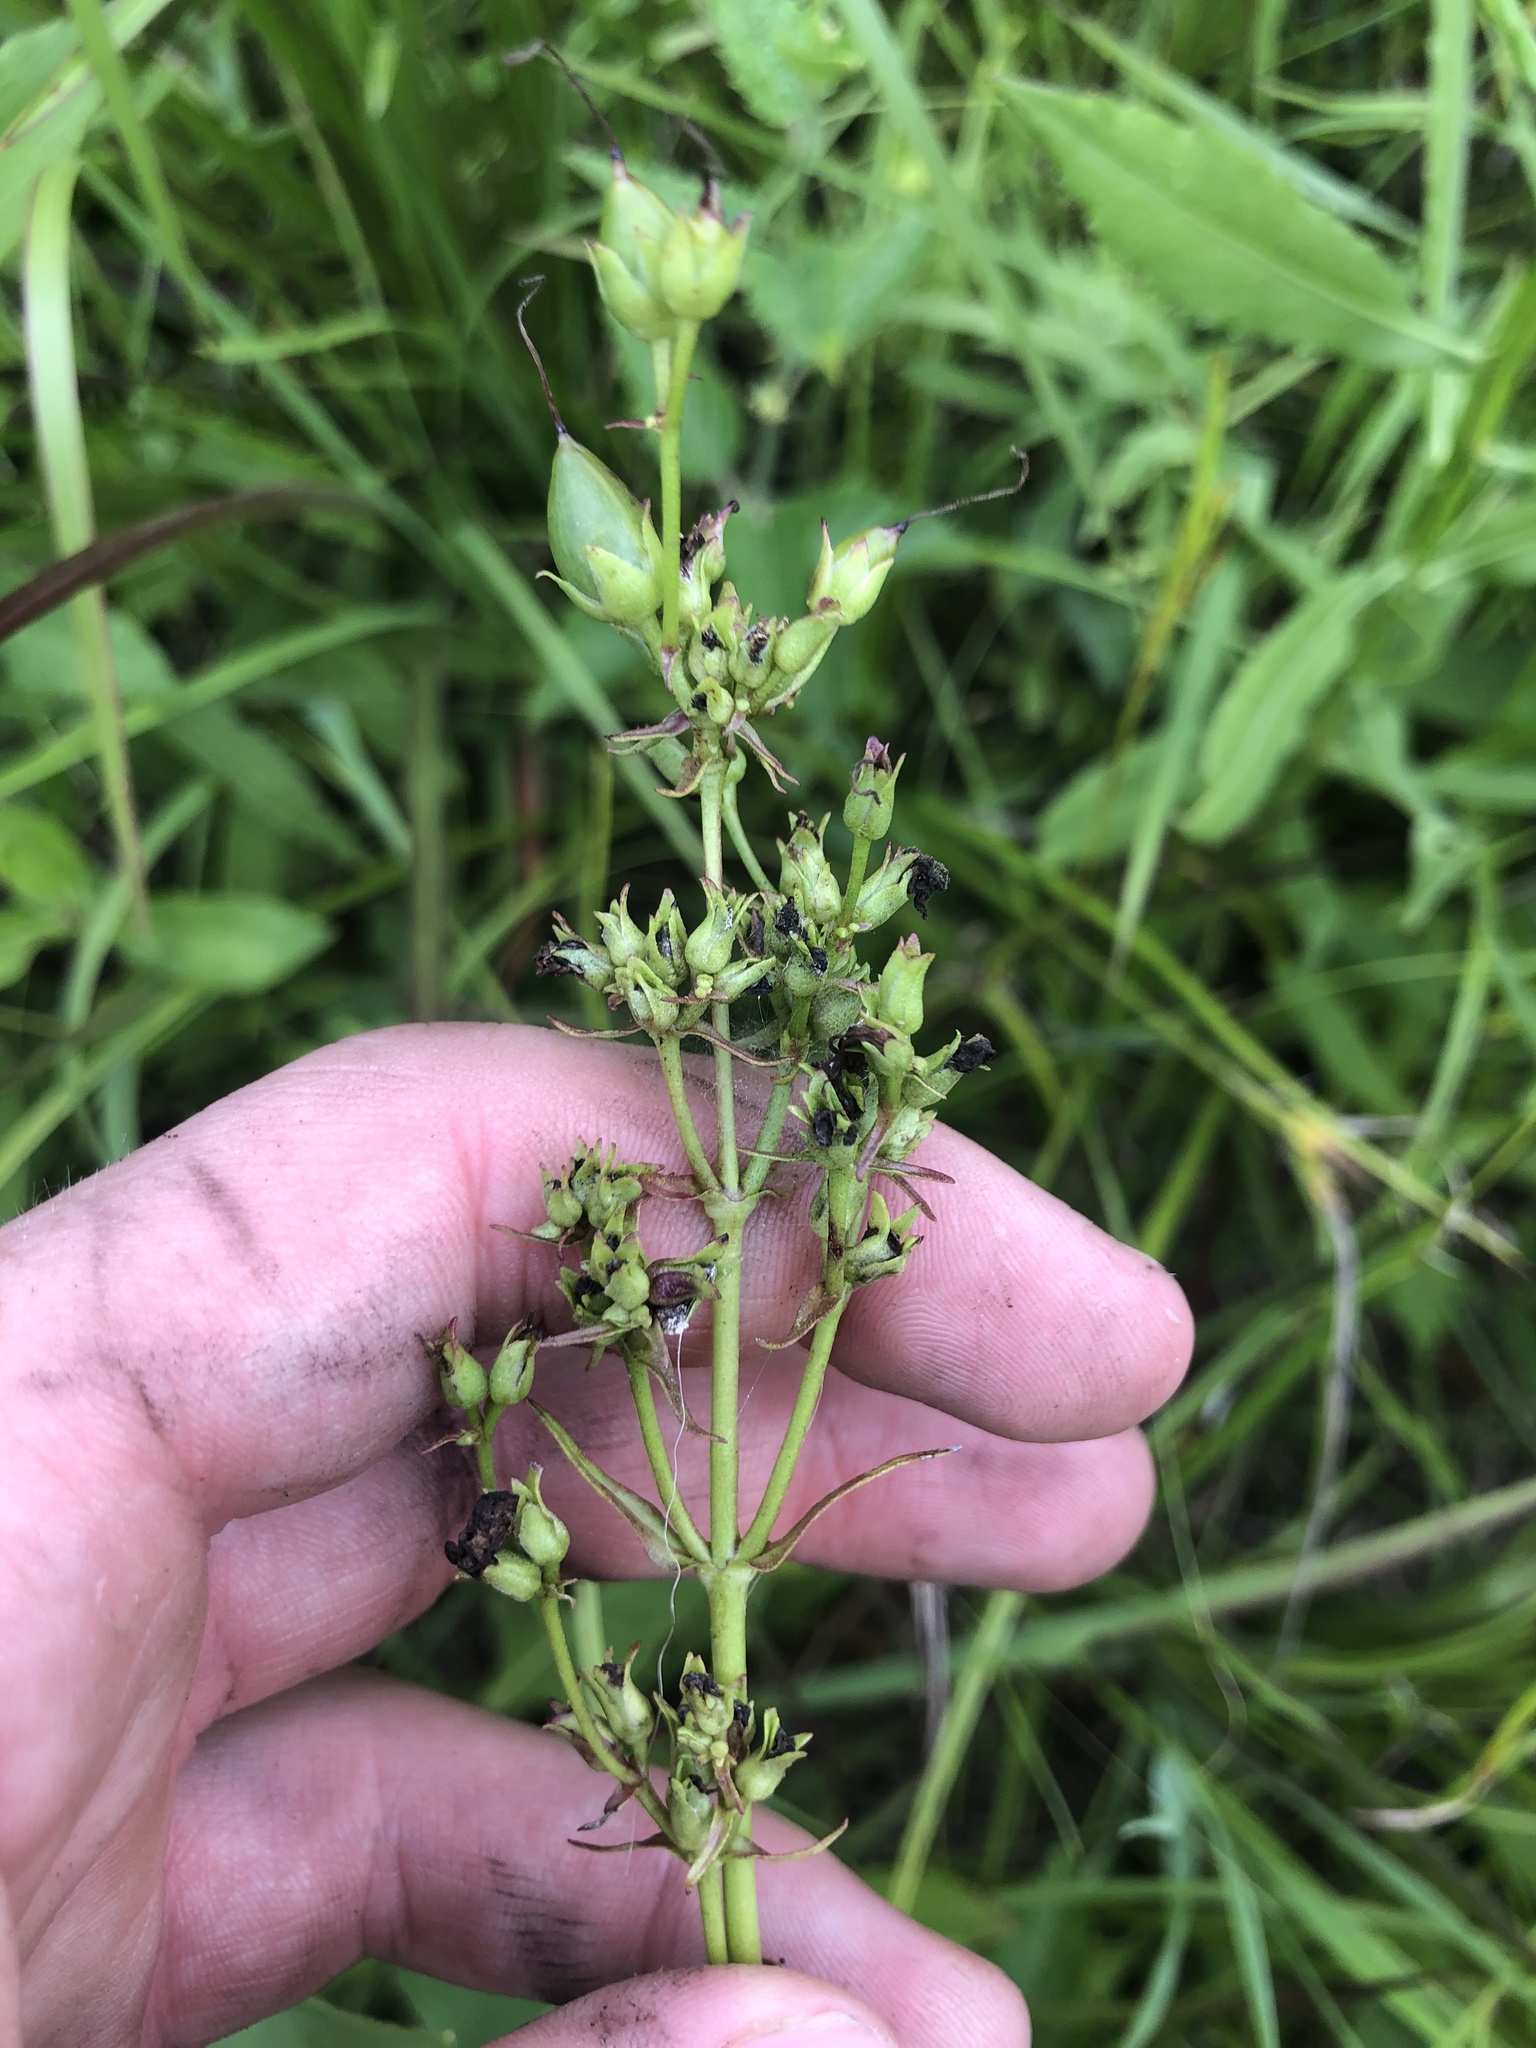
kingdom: Plantae
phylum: Tracheophyta
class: Magnoliopsida
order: Lamiales
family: Plantaginaceae
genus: Penstemon
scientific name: Penstemon laevigatus
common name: Eastern beardtongue
